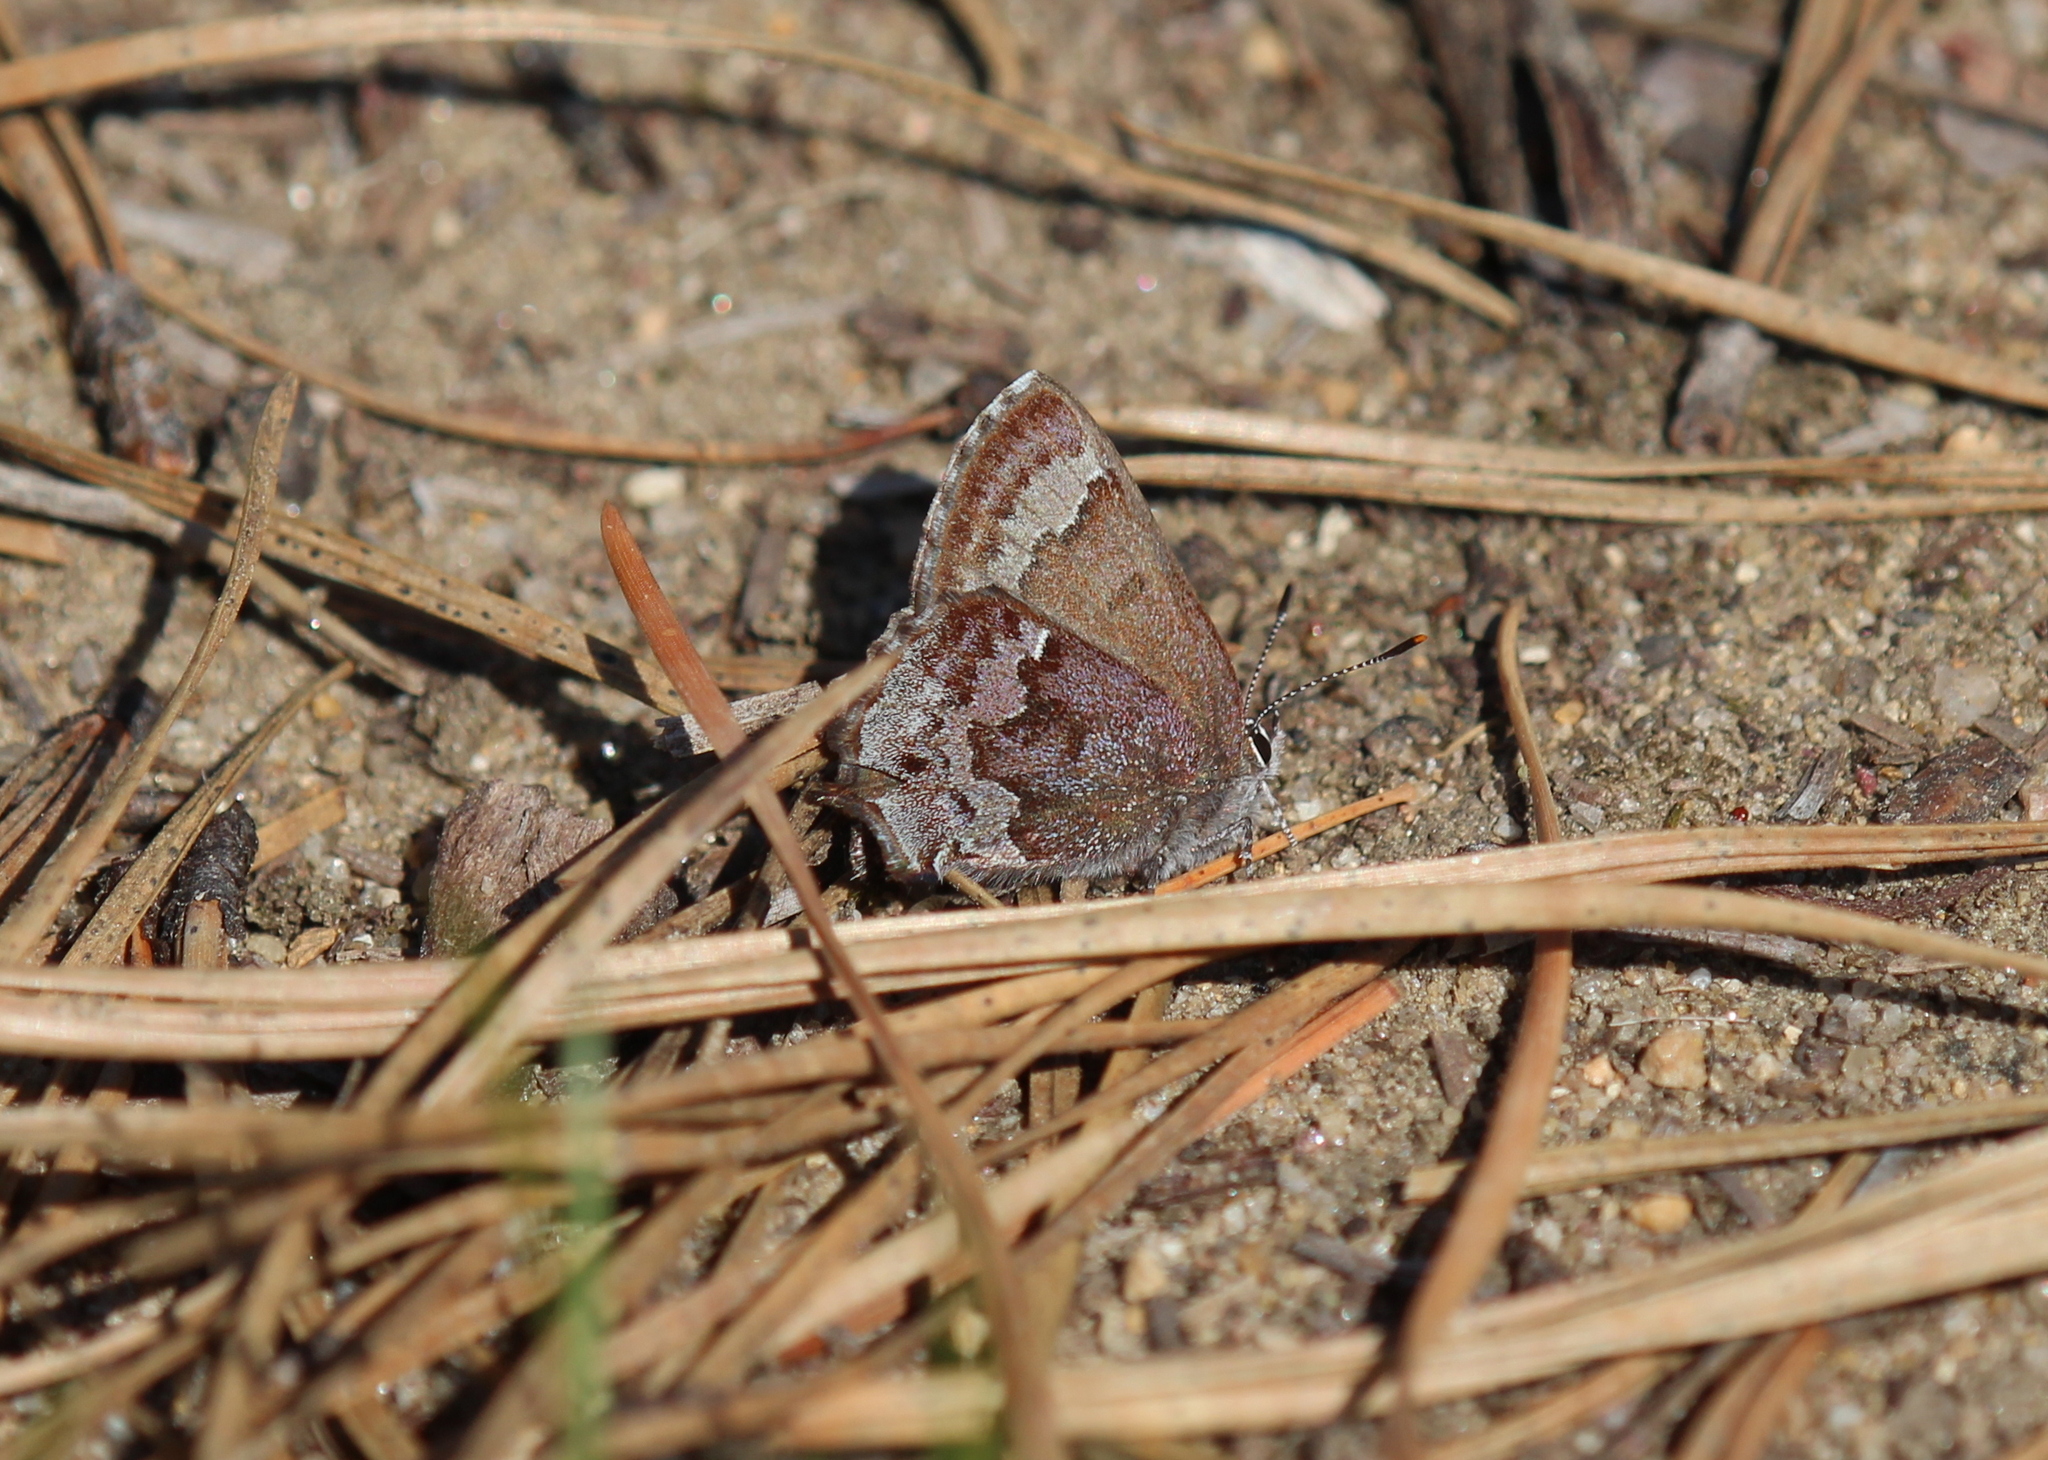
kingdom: Animalia
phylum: Arthropoda
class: Insecta
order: Lepidoptera
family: Lycaenidae
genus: Thecla
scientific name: Thecla irus
